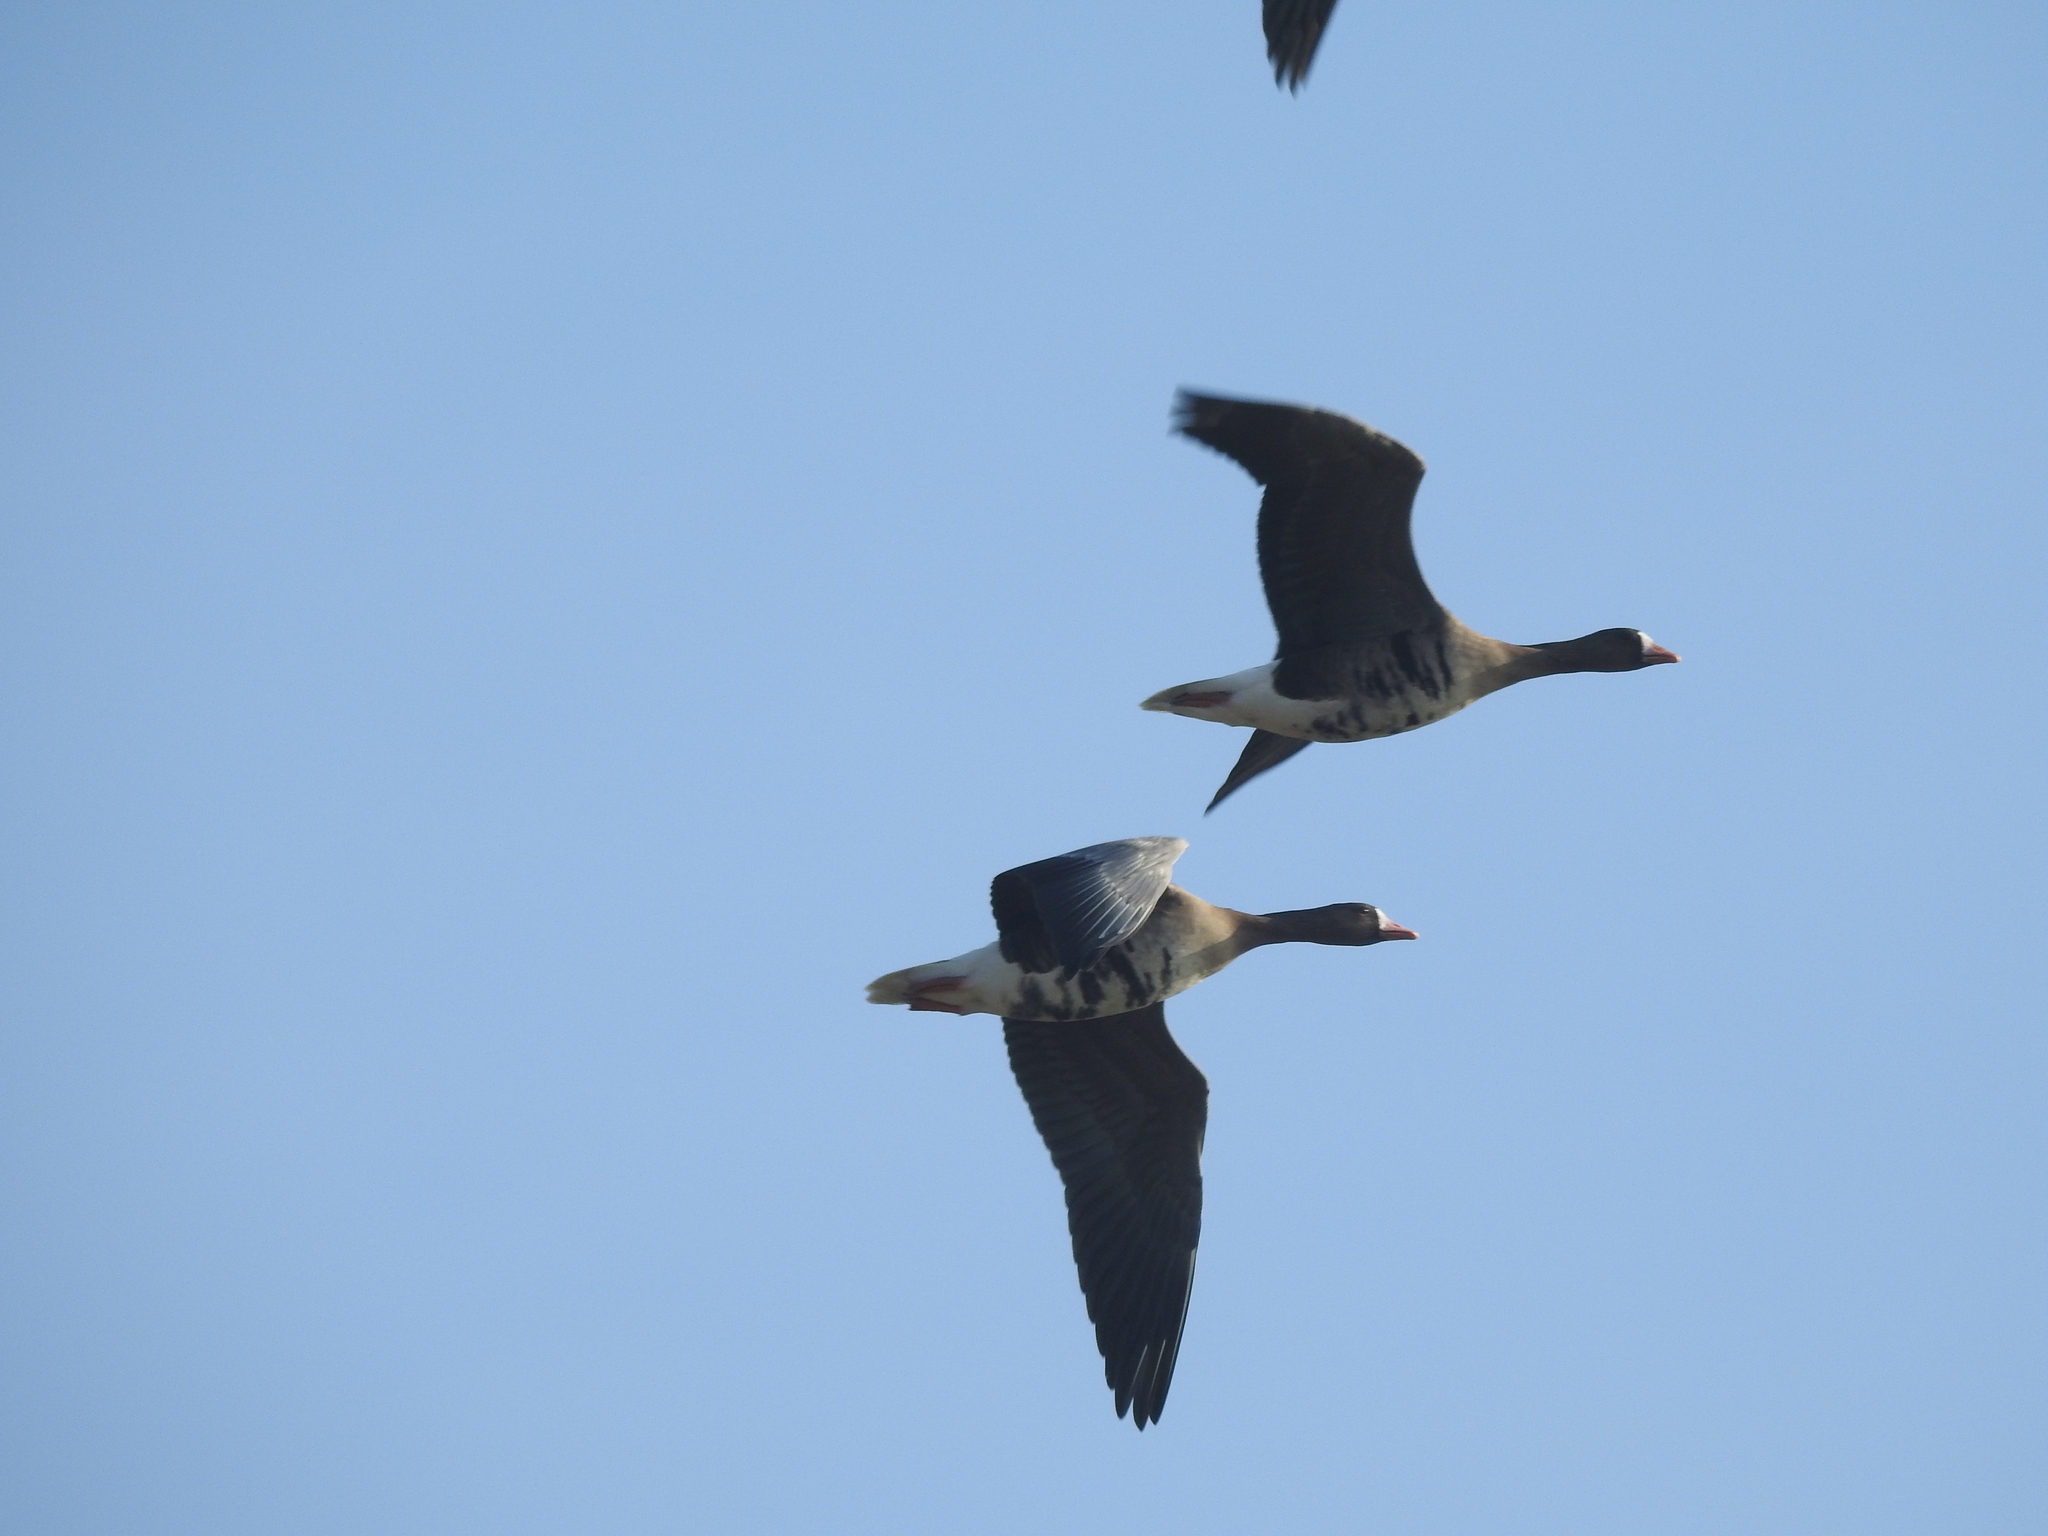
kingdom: Animalia
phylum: Chordata
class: Aves
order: Anseriformes
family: Anatidae
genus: Anser
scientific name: Anser albifrons
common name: Greater white-fronted goose
